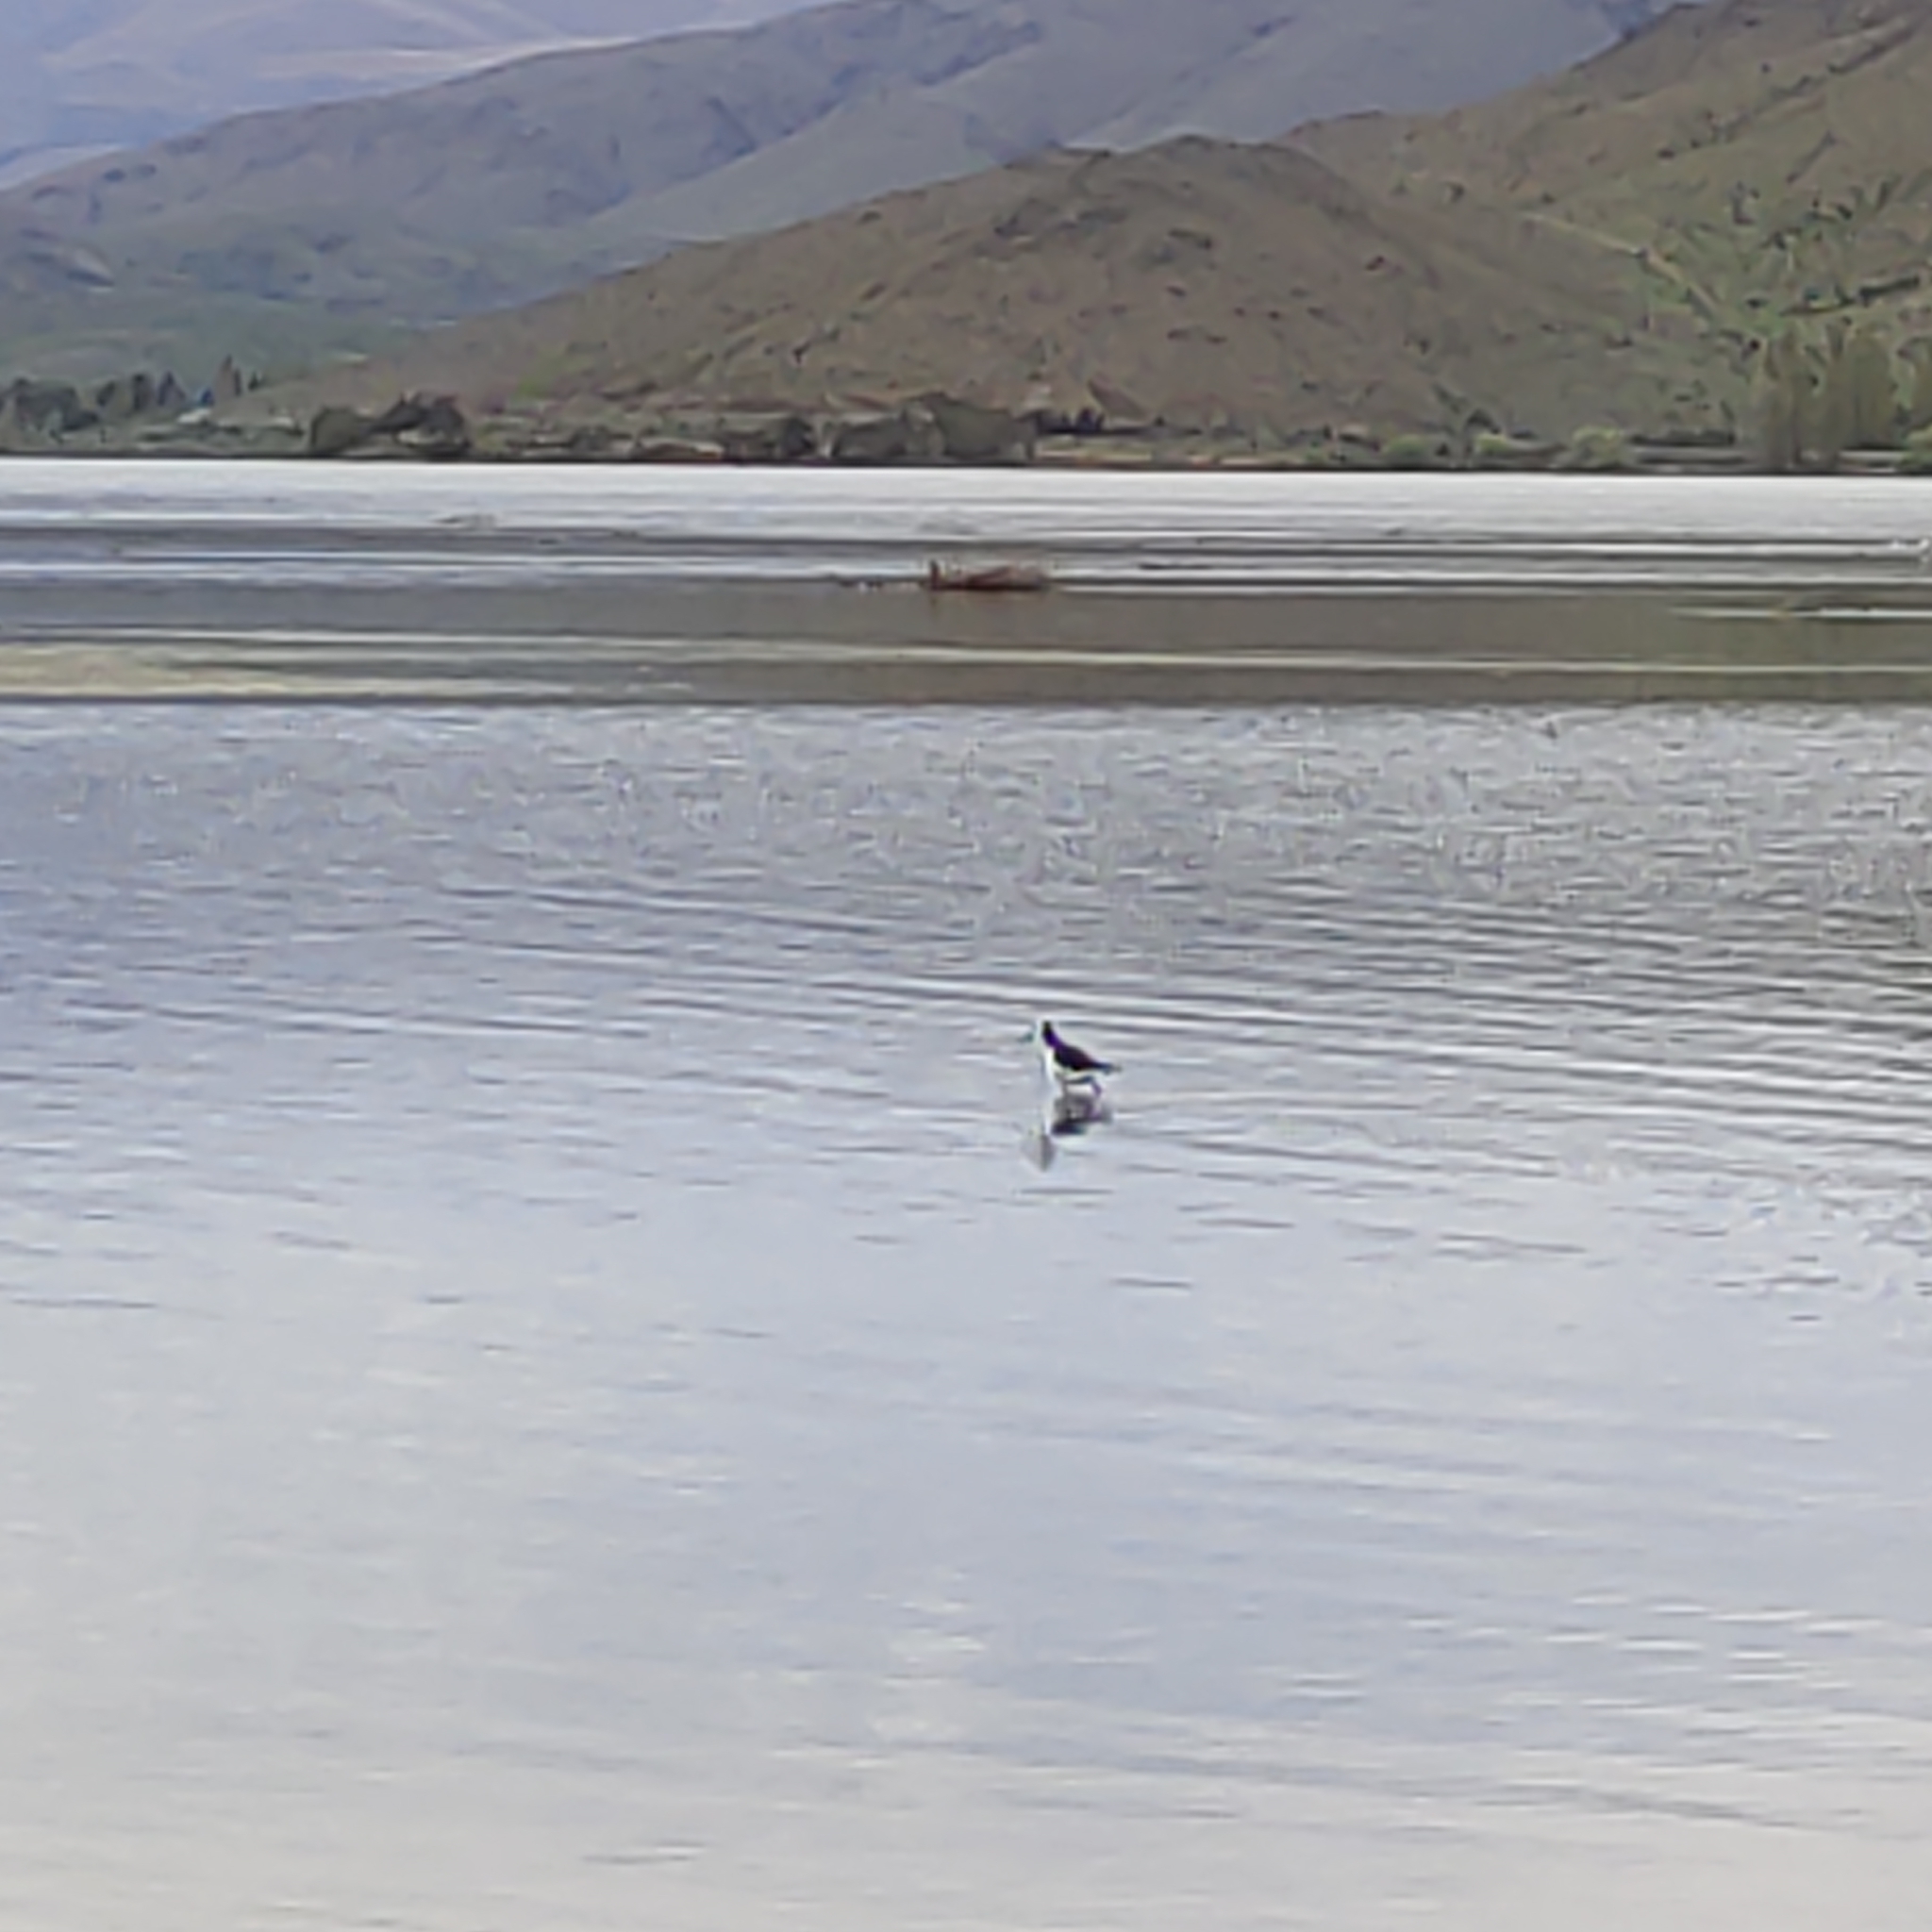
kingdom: Animalia
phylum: Chordata
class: Aves
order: Charadriiformes
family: Haematopodidae
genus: Haematopus
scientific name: Haematopus finschi
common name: South island oystercatcher
